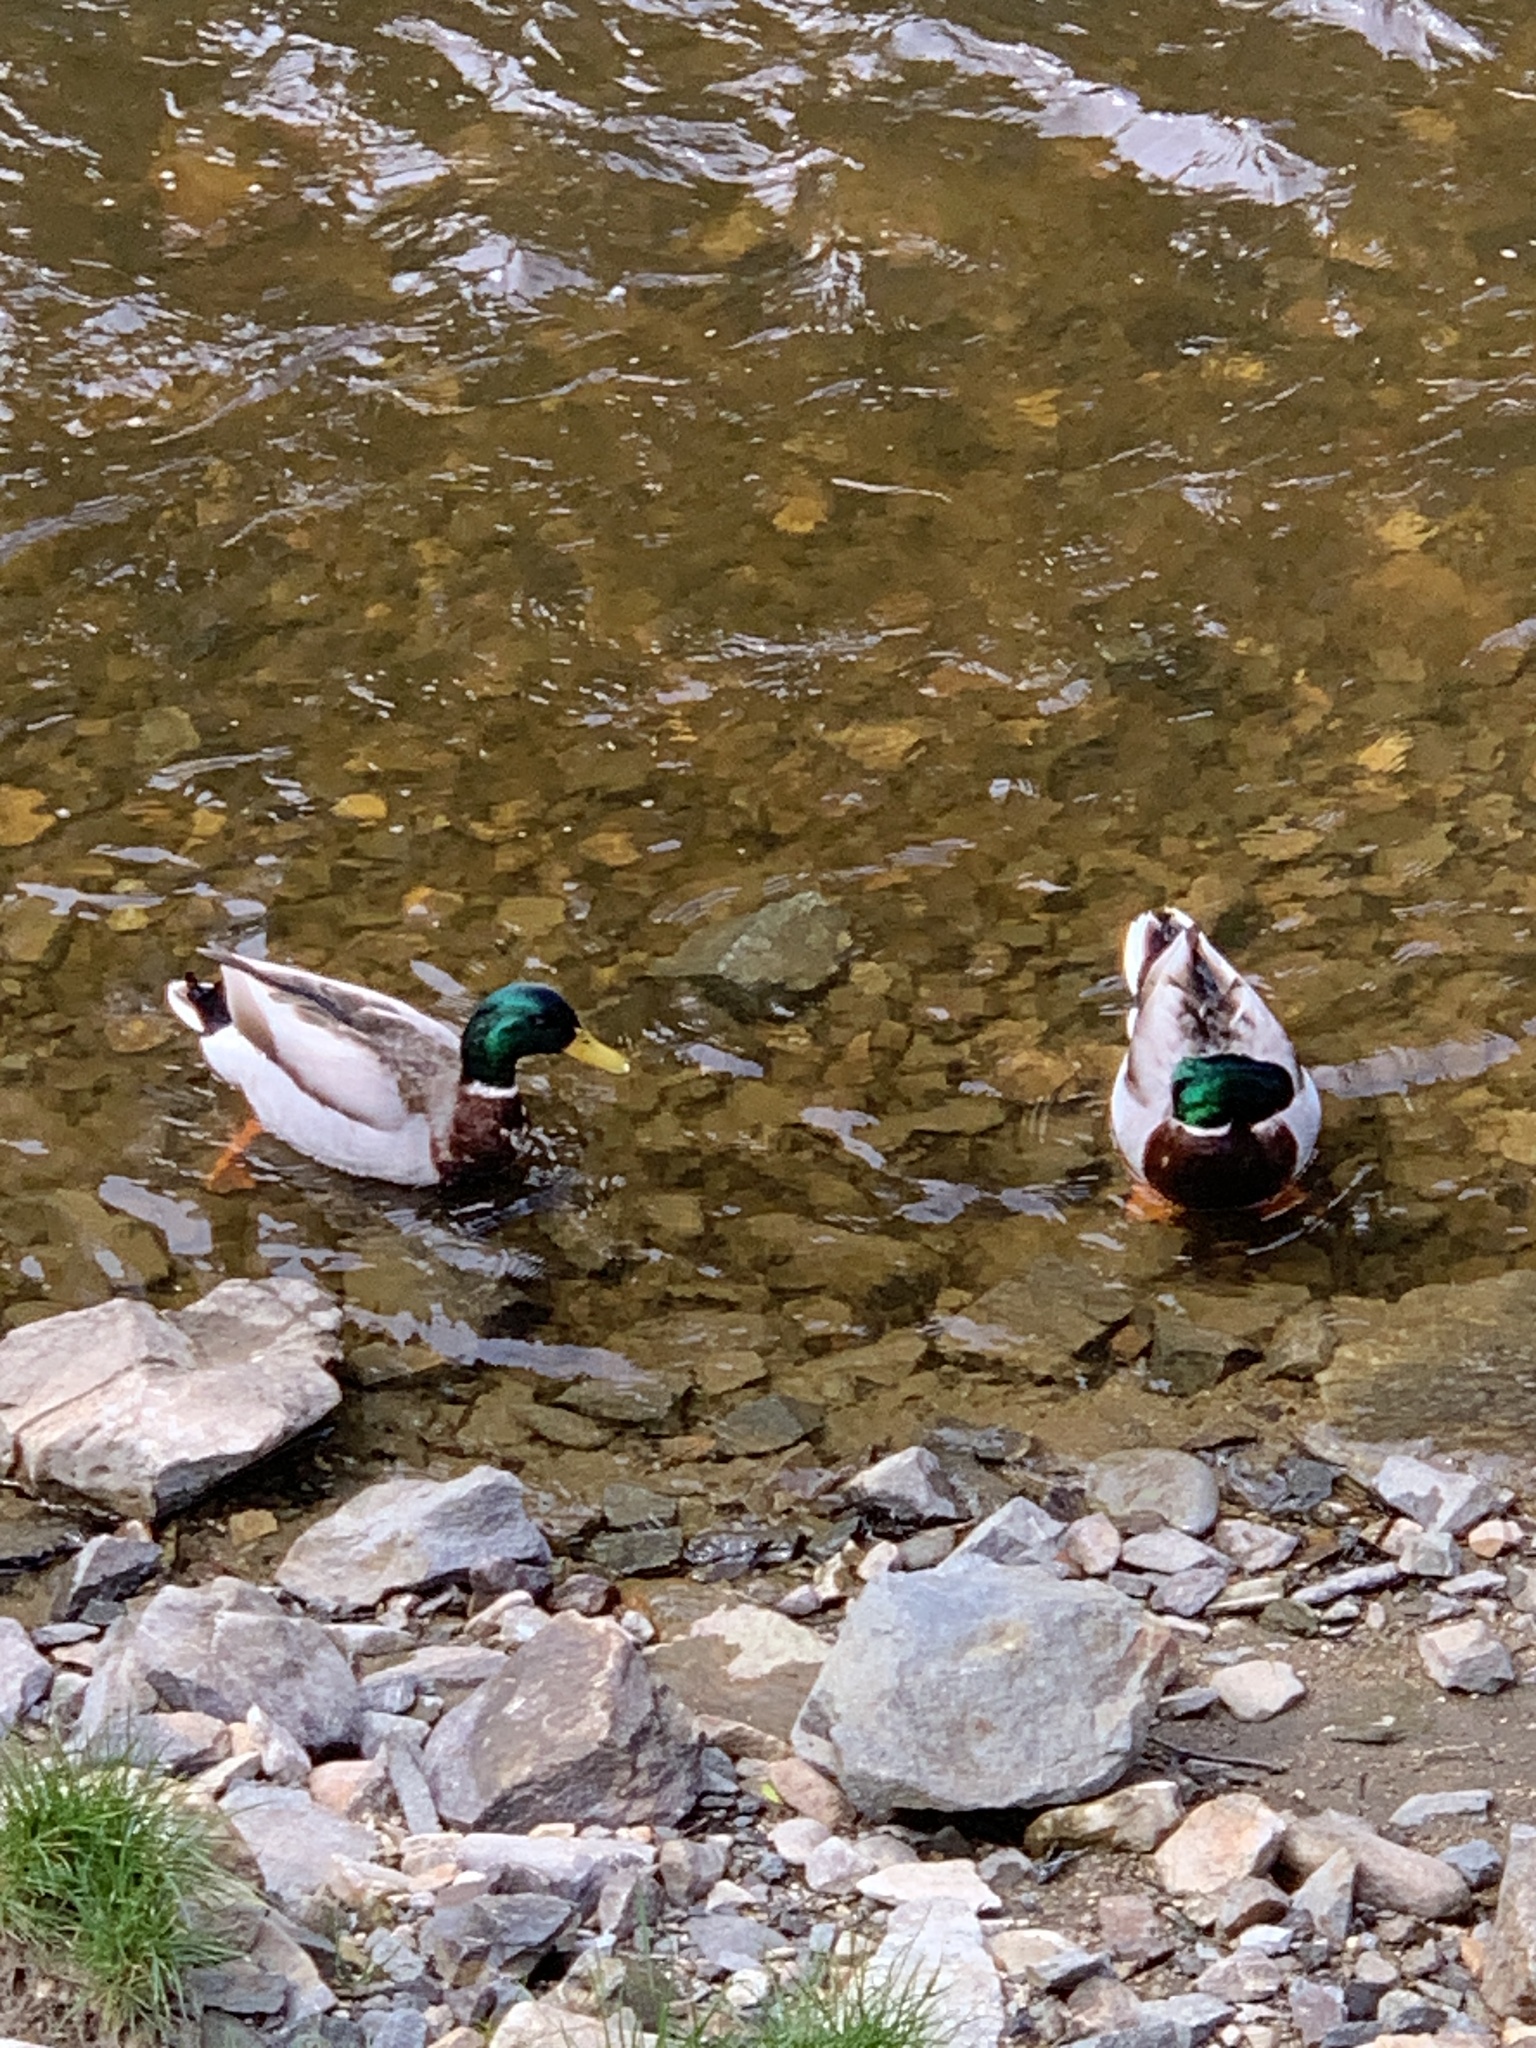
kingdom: Animalia
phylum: Chordata
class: Aves
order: Anseriformes
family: Anatidae
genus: Anas
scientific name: Anas platyrhynchos
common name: Mallard
